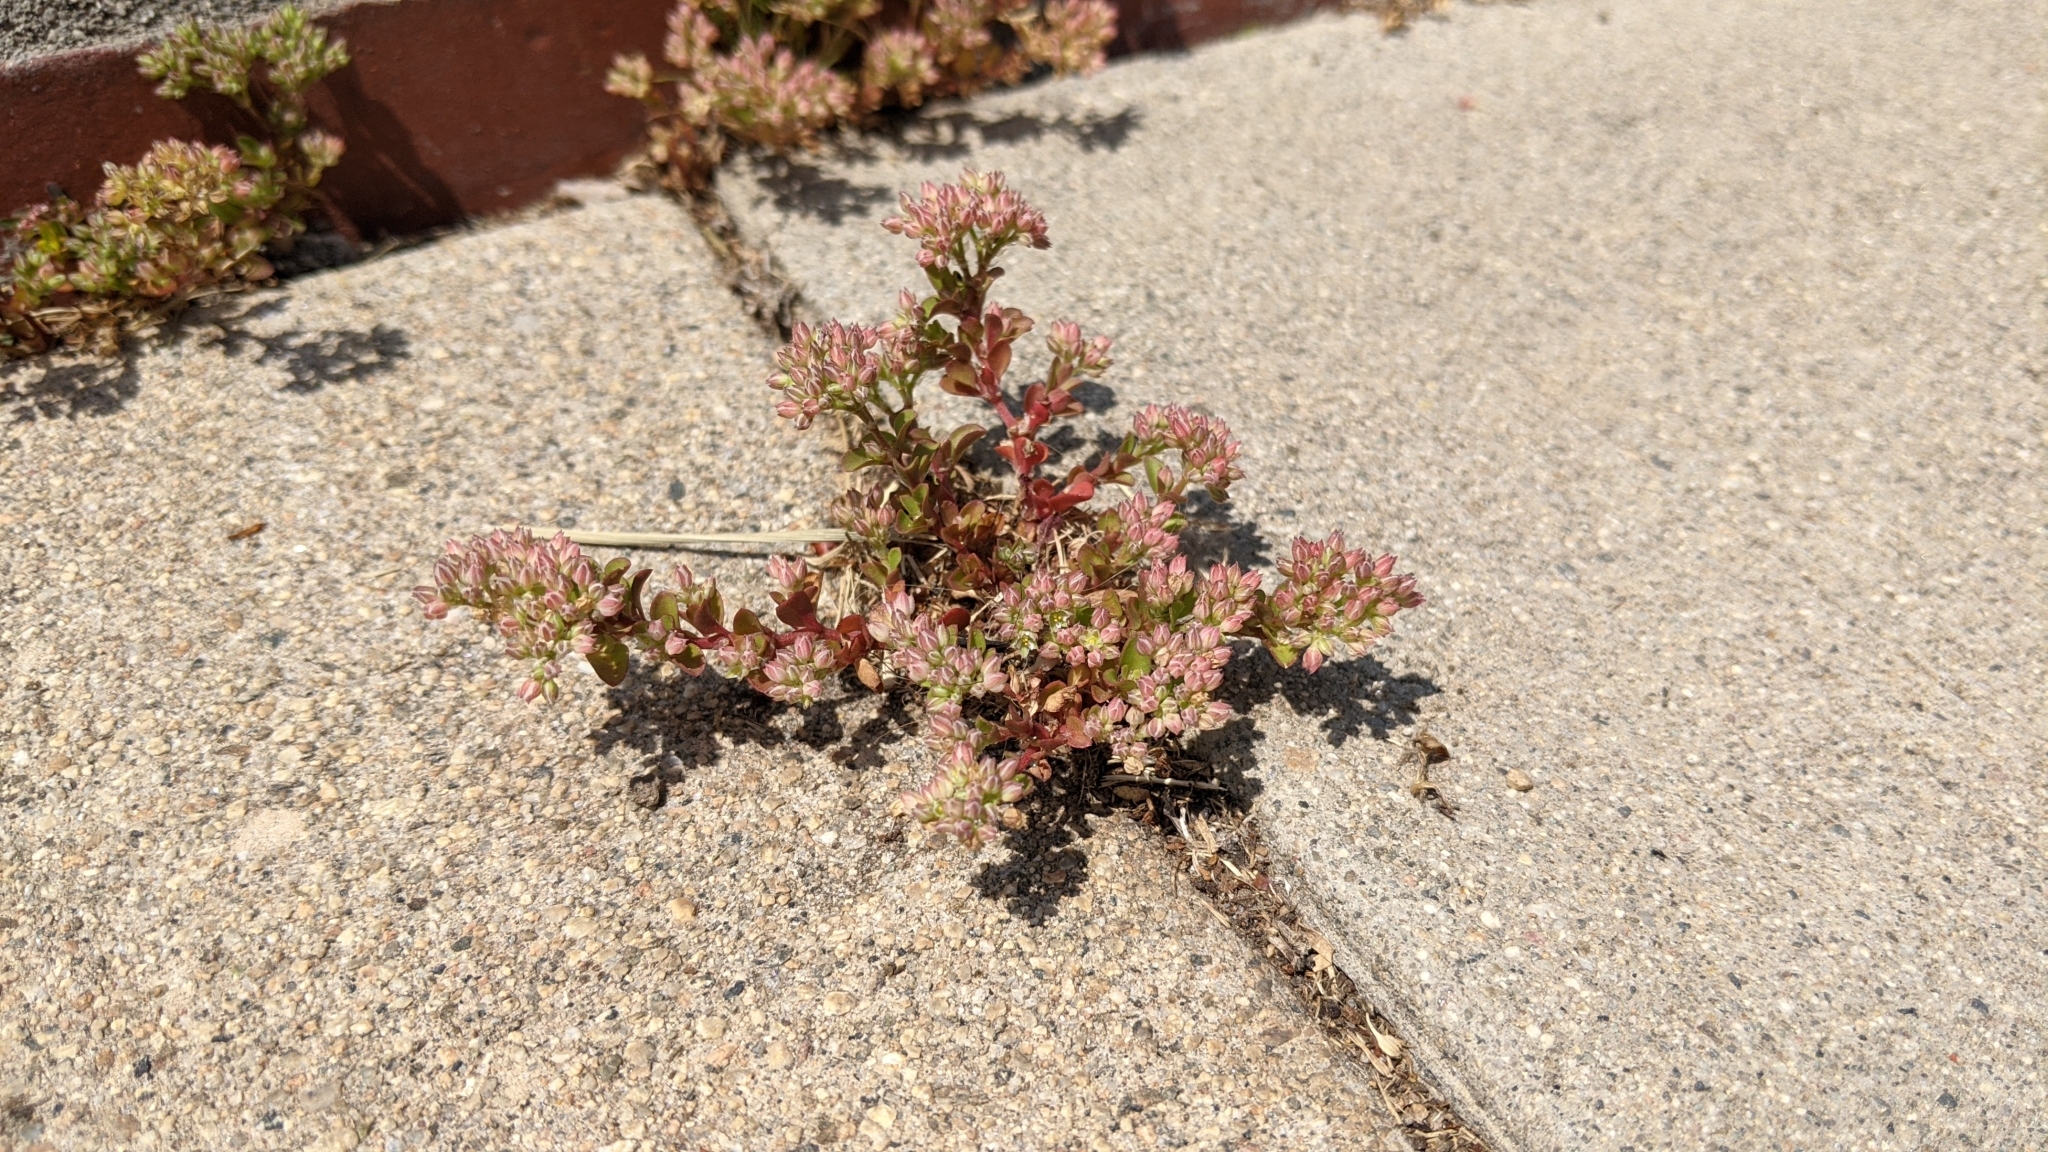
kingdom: Plantae
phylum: Tracheophyta
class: Magnoliopsida
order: Caryophyllales
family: Caryophyllaceae
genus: Polycarpon
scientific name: Polycarpon tetraphyllum
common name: Four-leaved all-seed
